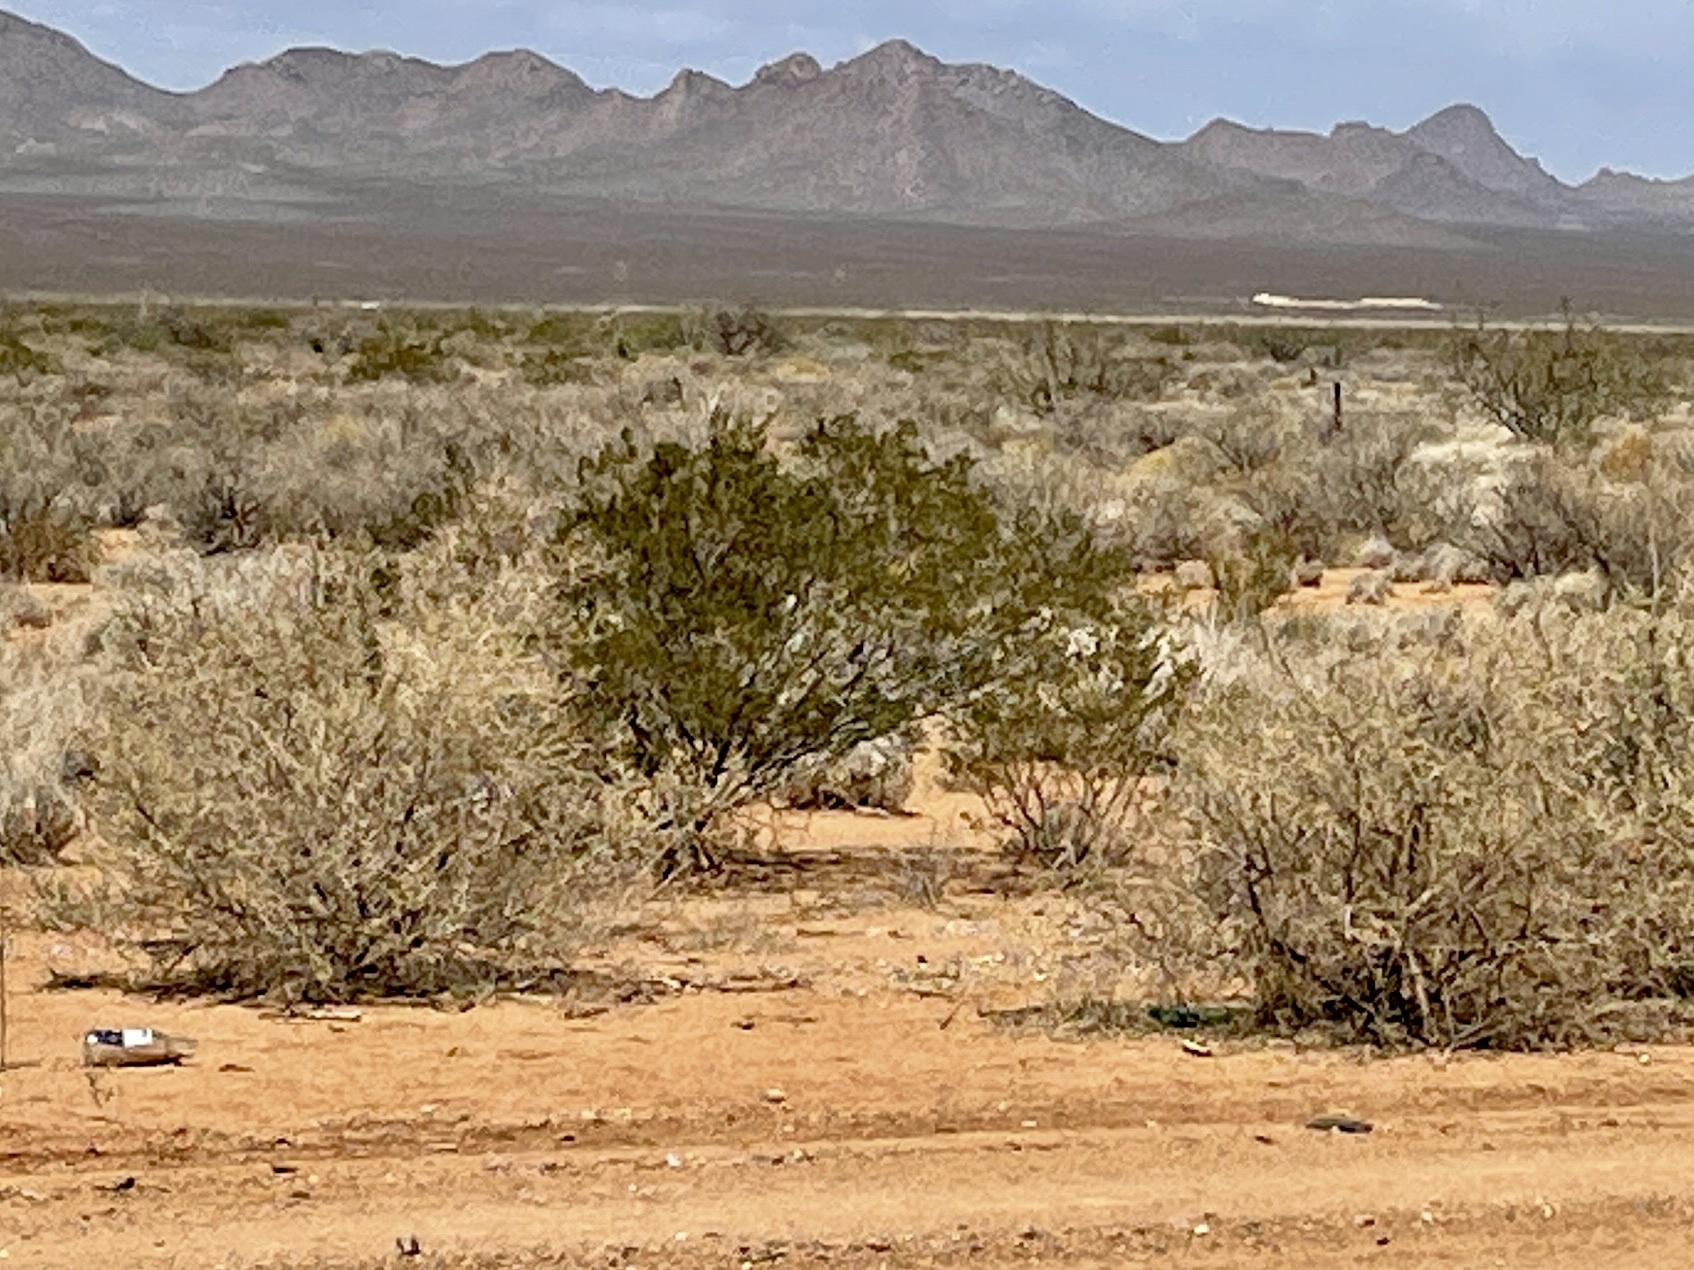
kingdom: Plantae
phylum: Tracheophyta
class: Magnoliopsida
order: Zygophyllales
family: Zygophyllaceae
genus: Larrea
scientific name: Larrea tridentata
